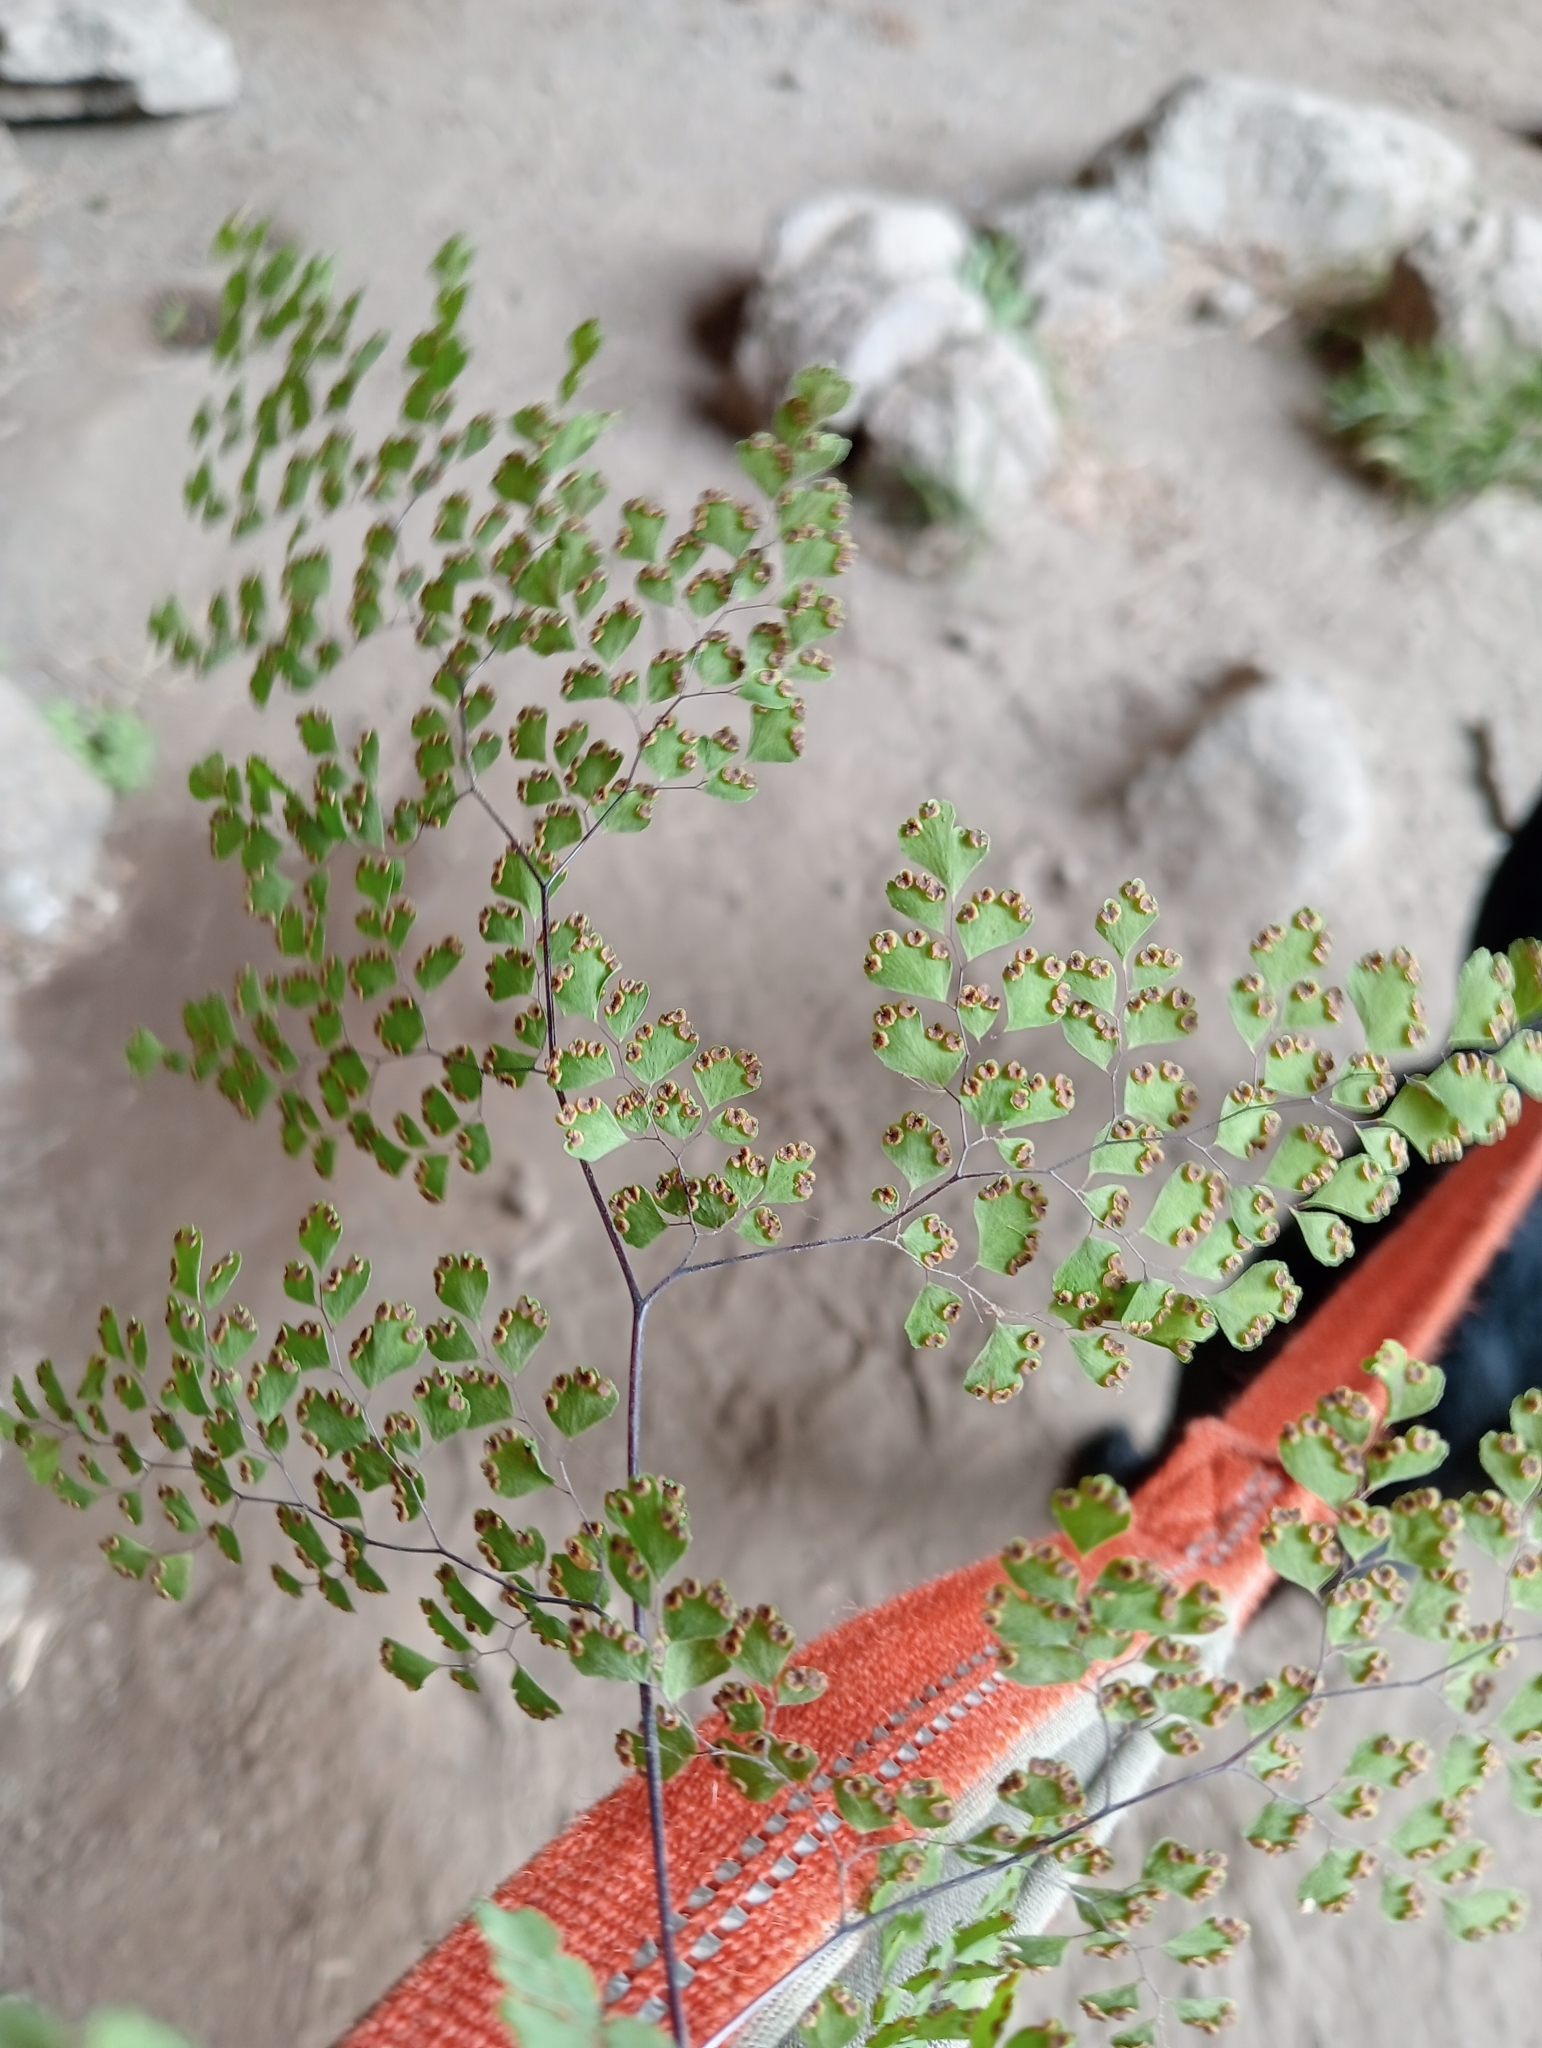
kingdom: Plantae
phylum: Tracheophyta
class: Polypodiopsida
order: Polypodiales
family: Pteridaceae
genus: Adiantum
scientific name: Adiantum raddianum
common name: Delta maidenhair fern
